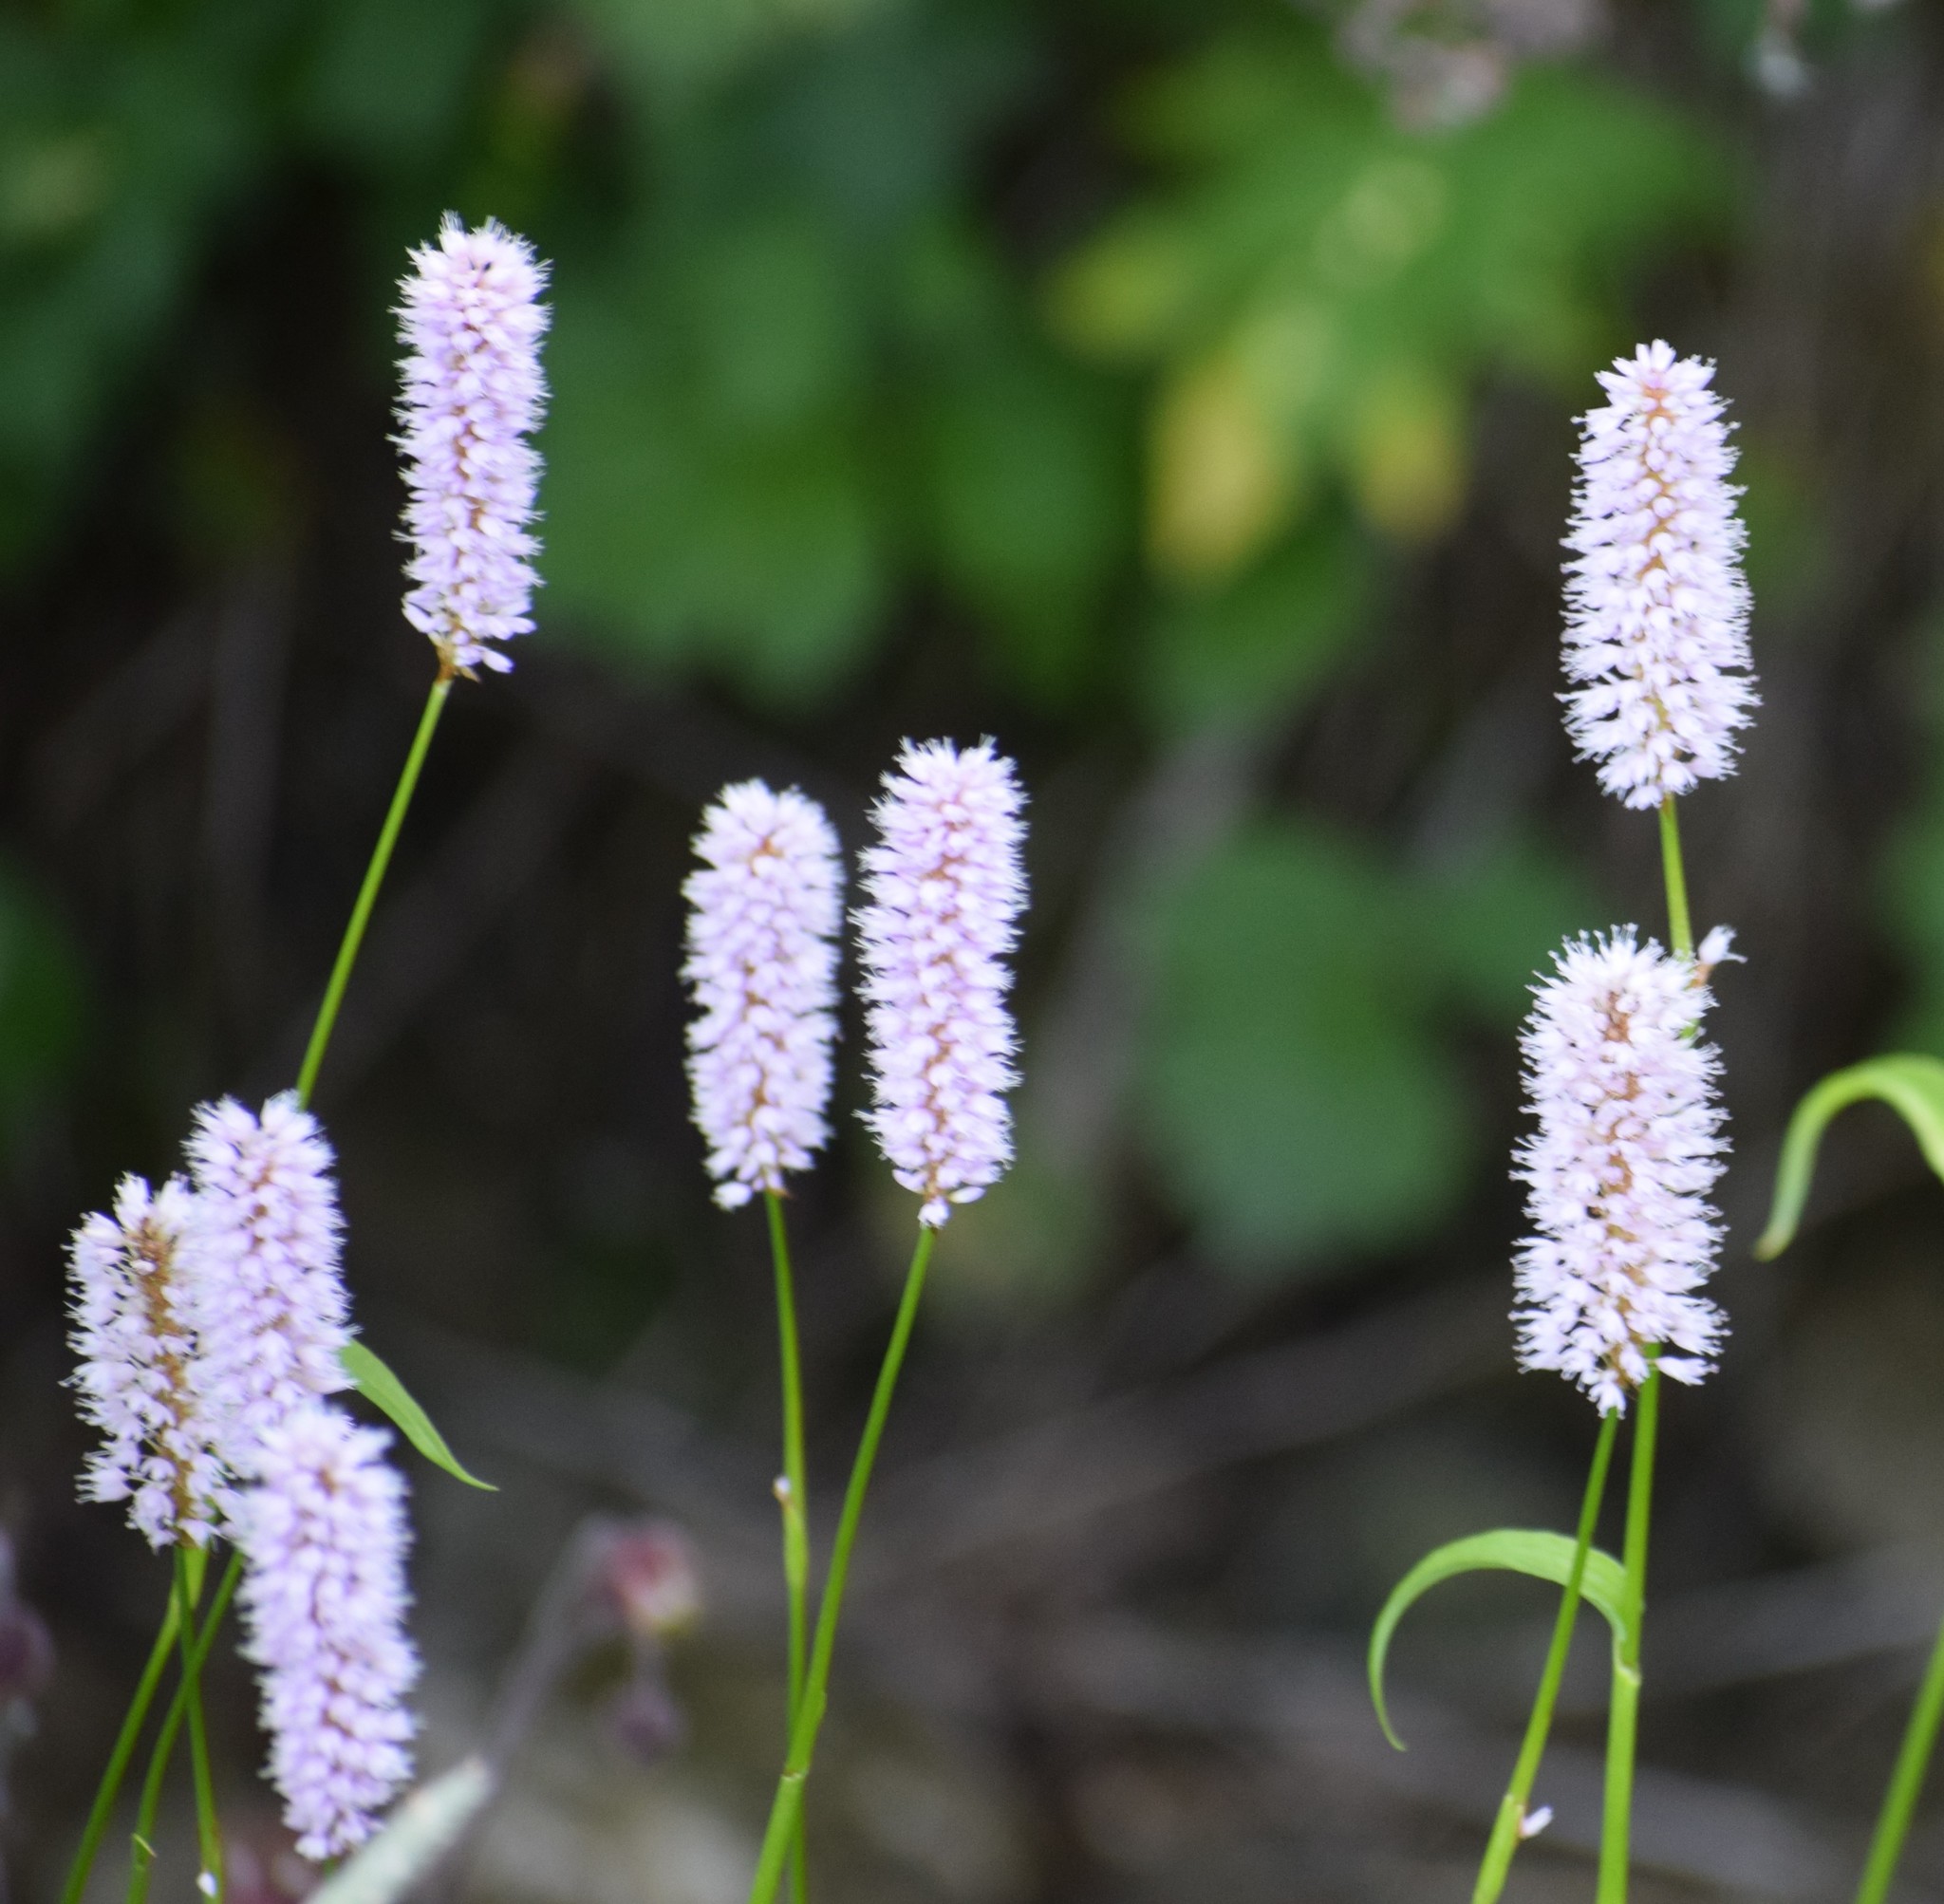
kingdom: Plantae
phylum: Tracheophyta
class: Magnoliopsida
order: Caryophyllales
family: Polygonaceae
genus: Bistorta
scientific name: Bistorta officinalis
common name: Common bistort
